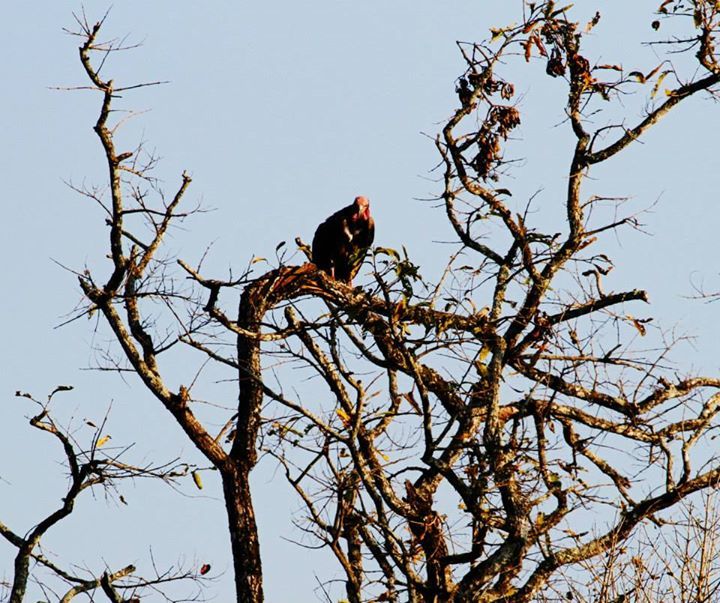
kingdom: Animalia
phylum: Chordata
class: Aves
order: Accipitriformes
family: Accipitridae
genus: Sarcogyps
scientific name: Sarcogyps calvus
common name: Red-headed vulture
